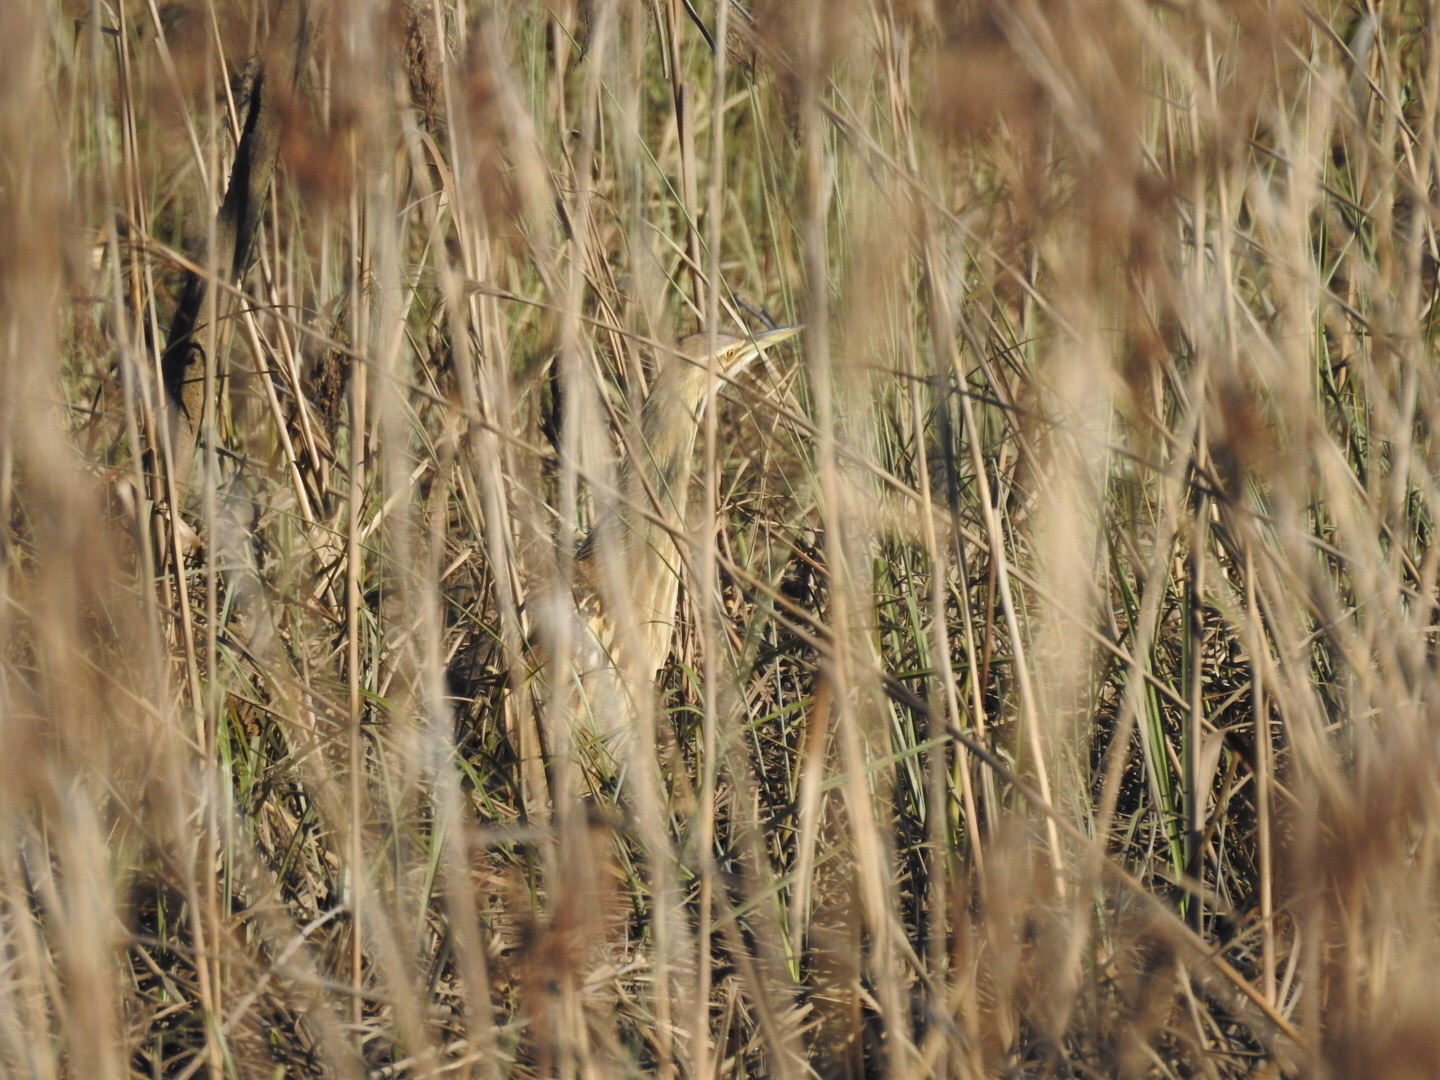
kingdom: Animalia
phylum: Chordata
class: Aves
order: Pelecaniformes
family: Ardeidae
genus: Botaurus
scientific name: Botaurus lentiginosus
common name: American bittern
